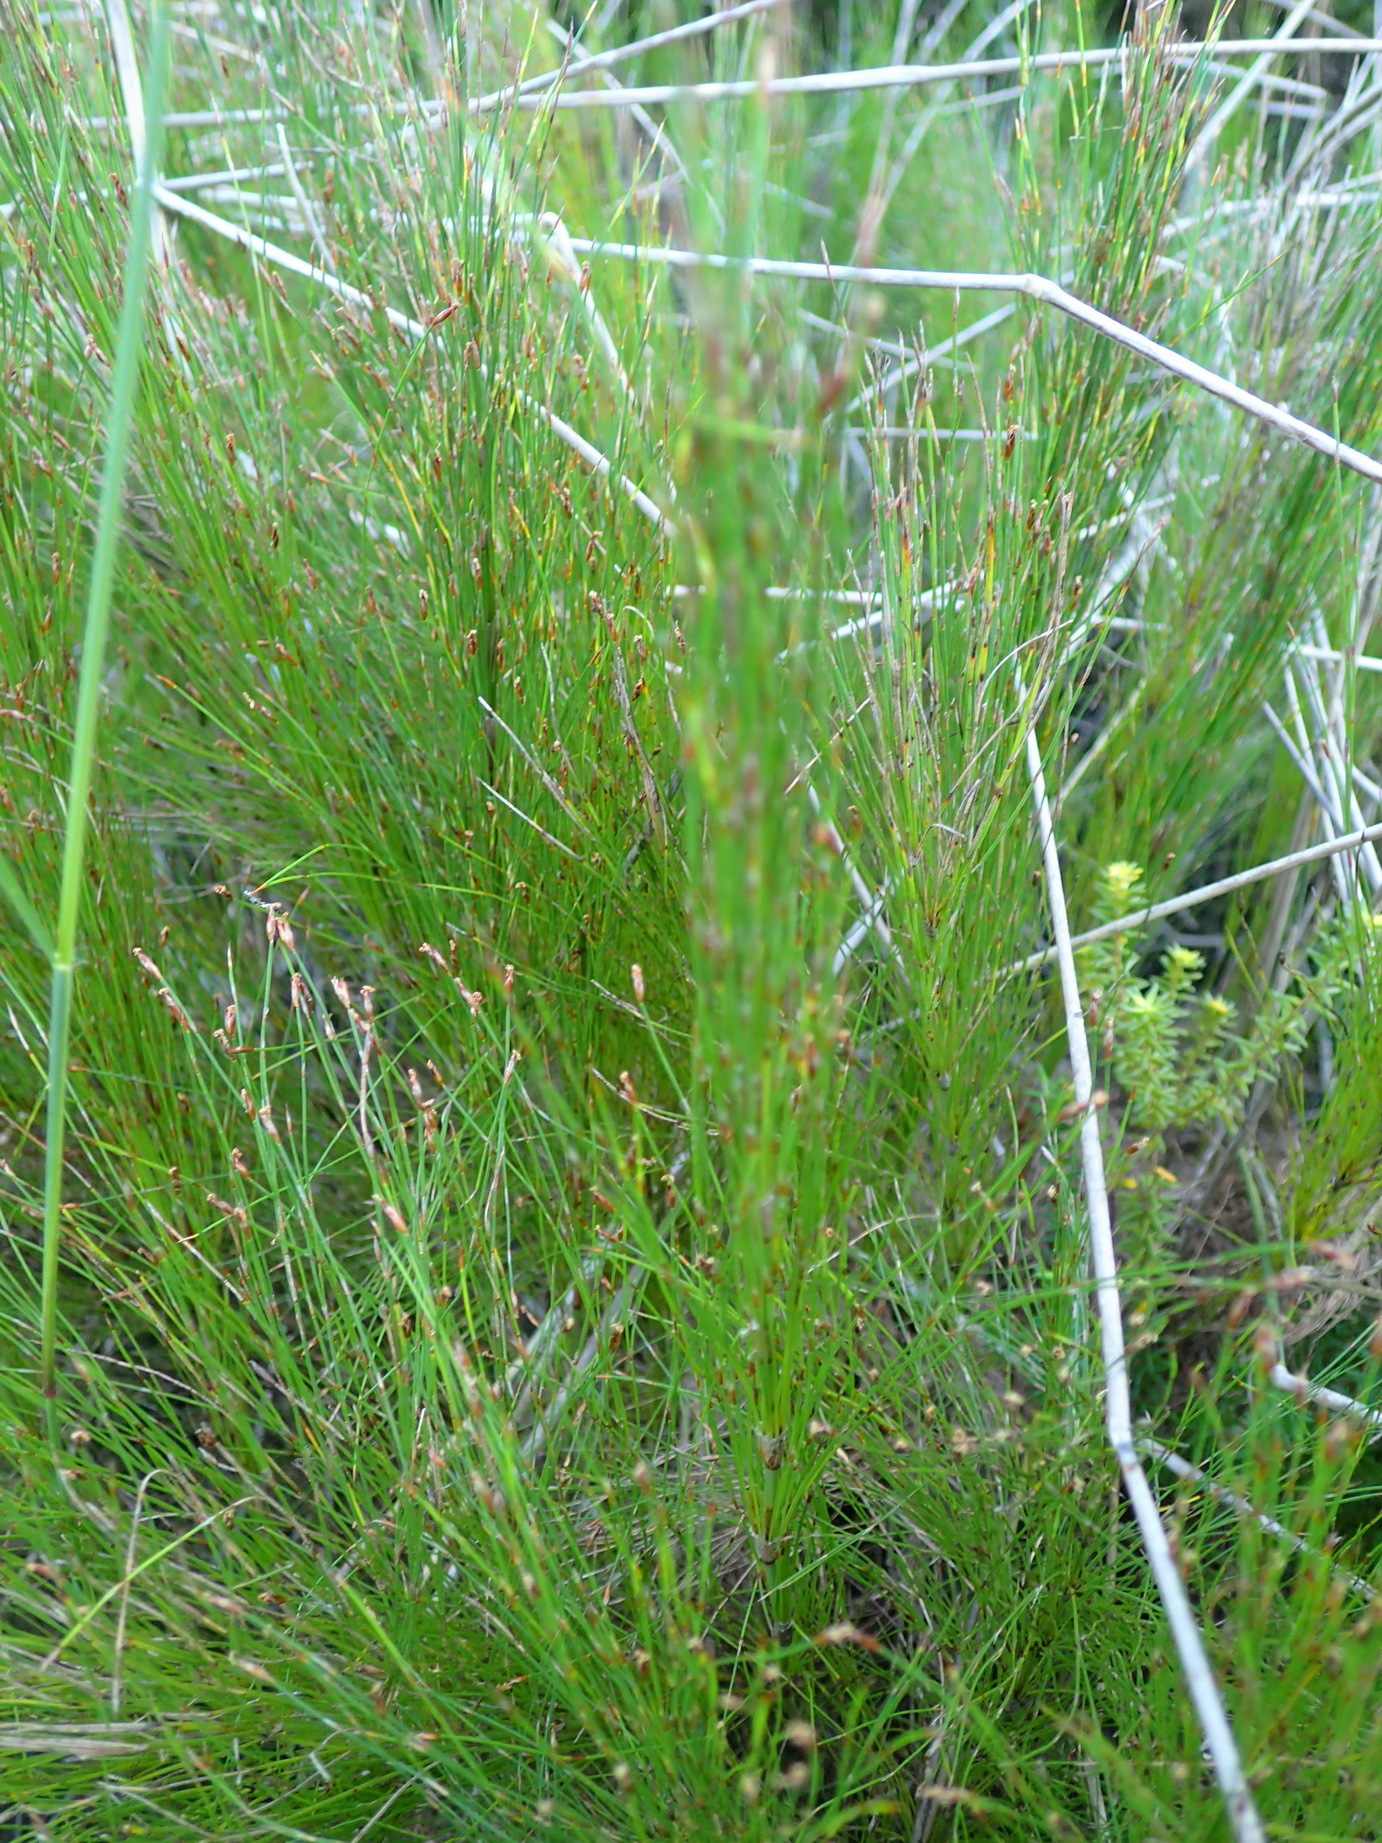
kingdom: Plantae
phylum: Tracheophyta
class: Liliopsida
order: Poales
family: Restionaceae
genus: Restio
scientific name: Restio leptoclados
